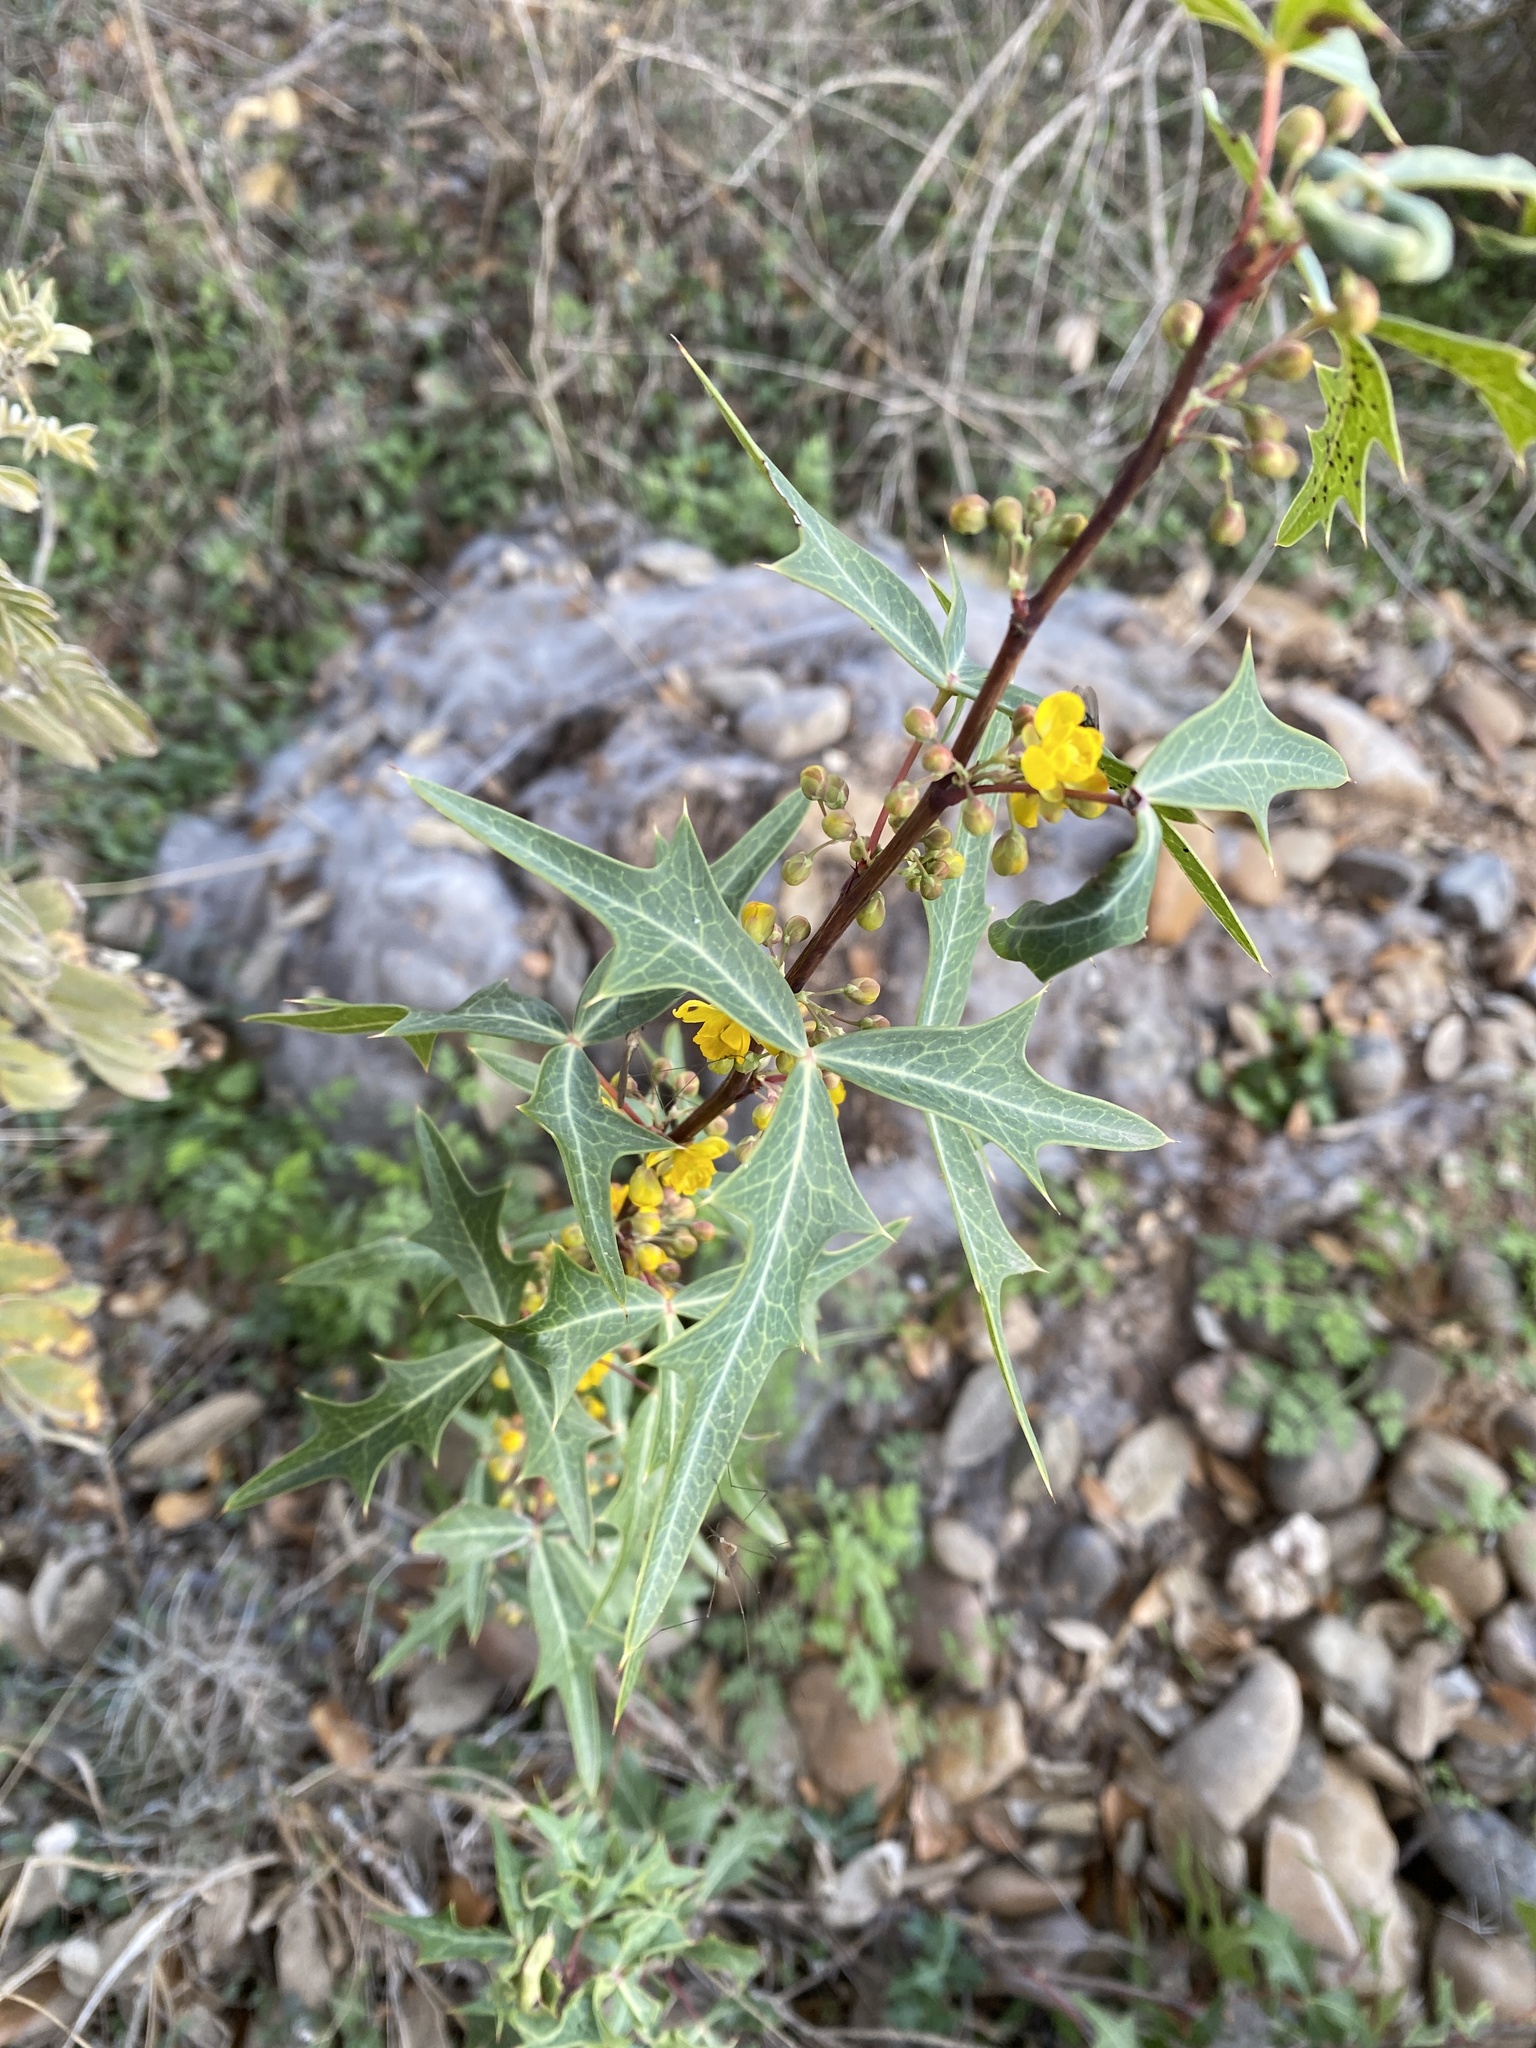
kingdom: Plantae
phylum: Tracheophyta
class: Magnoliopsida
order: Ranunculales
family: Berberidaceae
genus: Alloberberis
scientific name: Alloberberis trifoliolata
